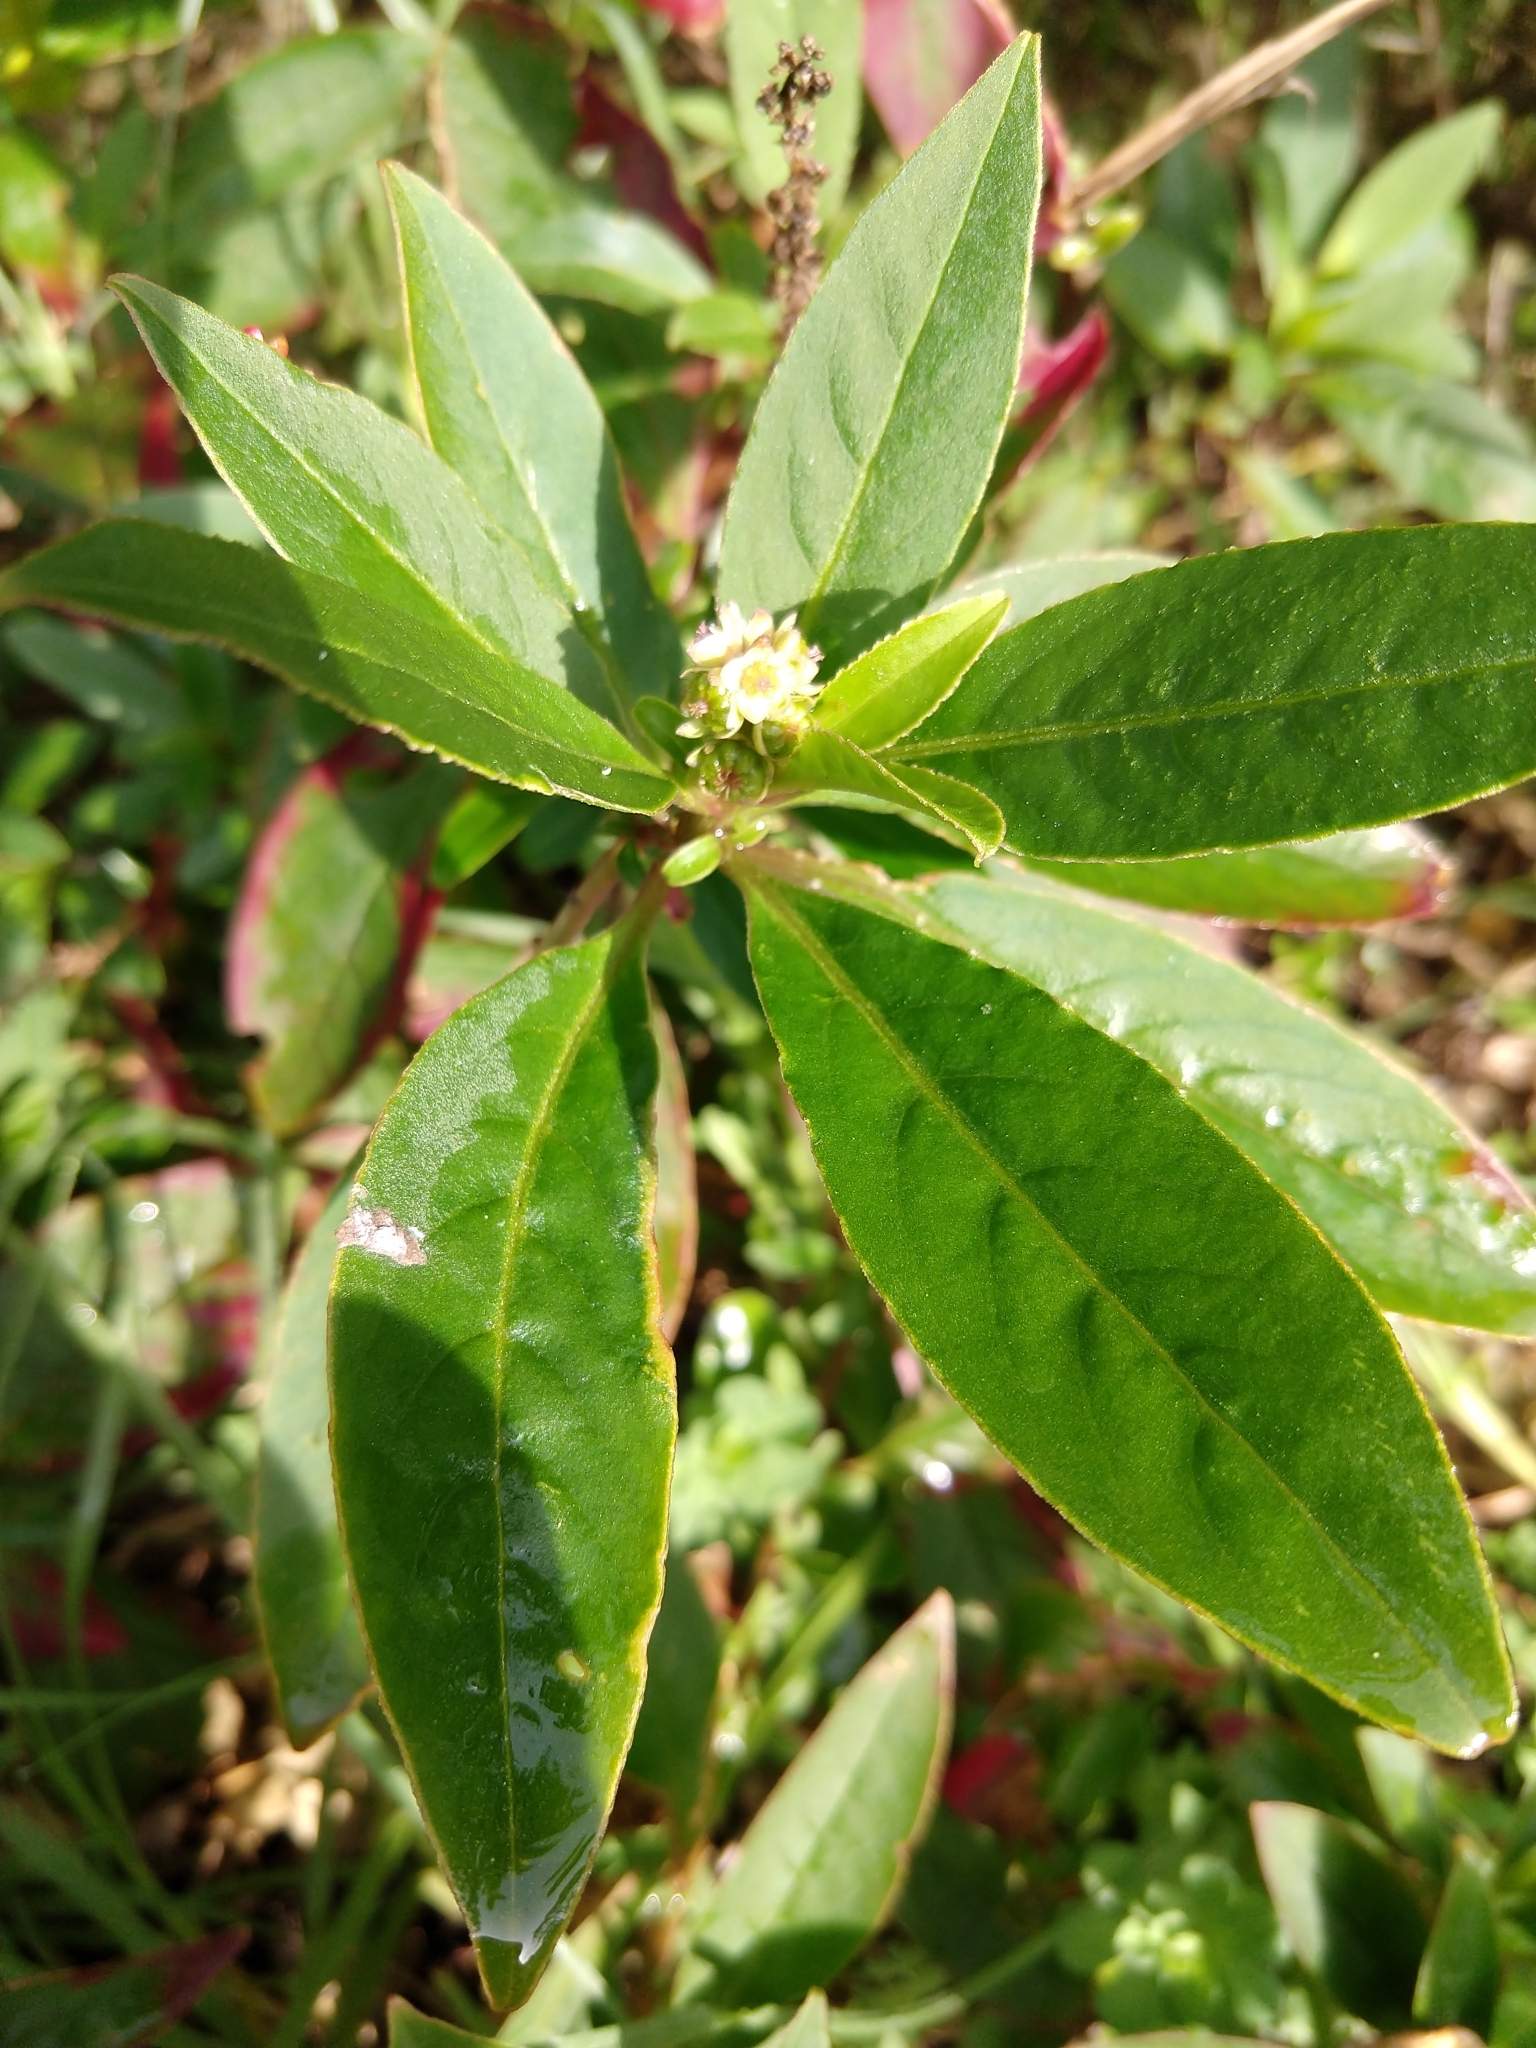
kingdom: Plantae
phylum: Tracheophyta
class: Magnoliopsida
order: Caryophyllales
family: Phytolaccaceae
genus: Phytolacca
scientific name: Phytolacca icosandra
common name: Button pokeweed
